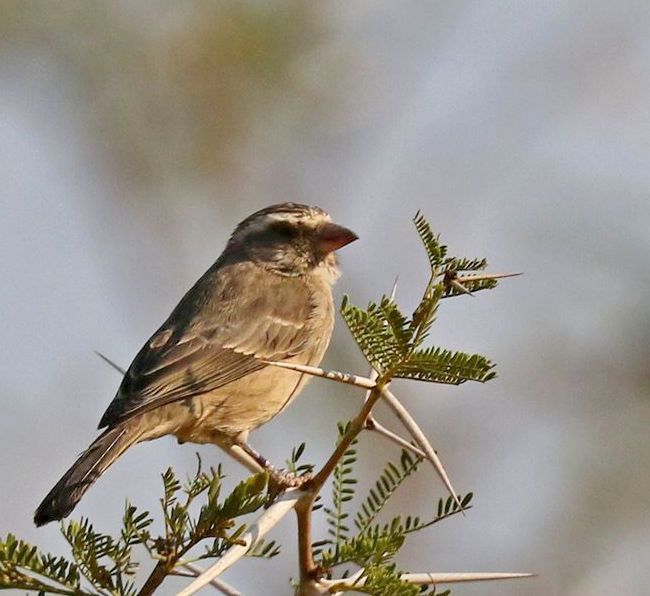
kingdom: Animalia
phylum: Chordata
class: Aves
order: Passeriformes
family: Fringillidae
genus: Crithagra
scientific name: Crithagra gularis
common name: Streaky-headed seedeater
